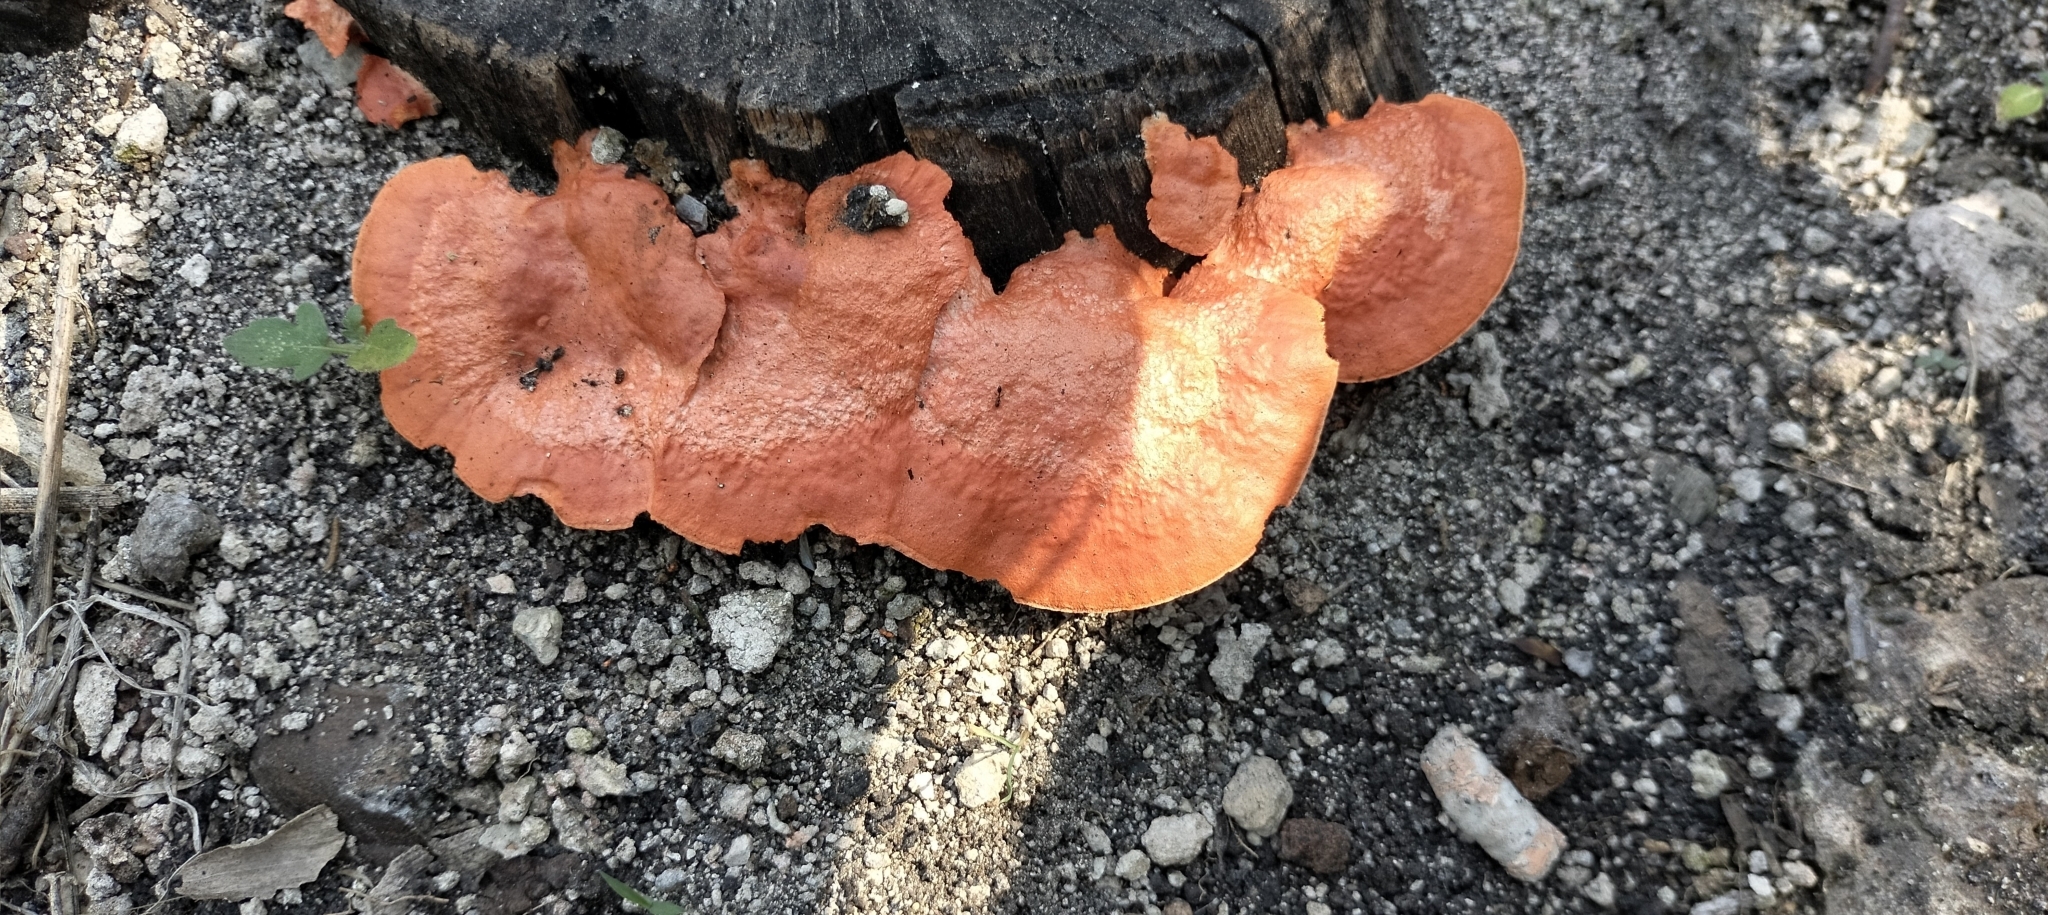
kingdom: Fungi
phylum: Basidiomycota
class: Agaricomycetes
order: Polyporales
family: Polyporaceae
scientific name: Polyporaceae
